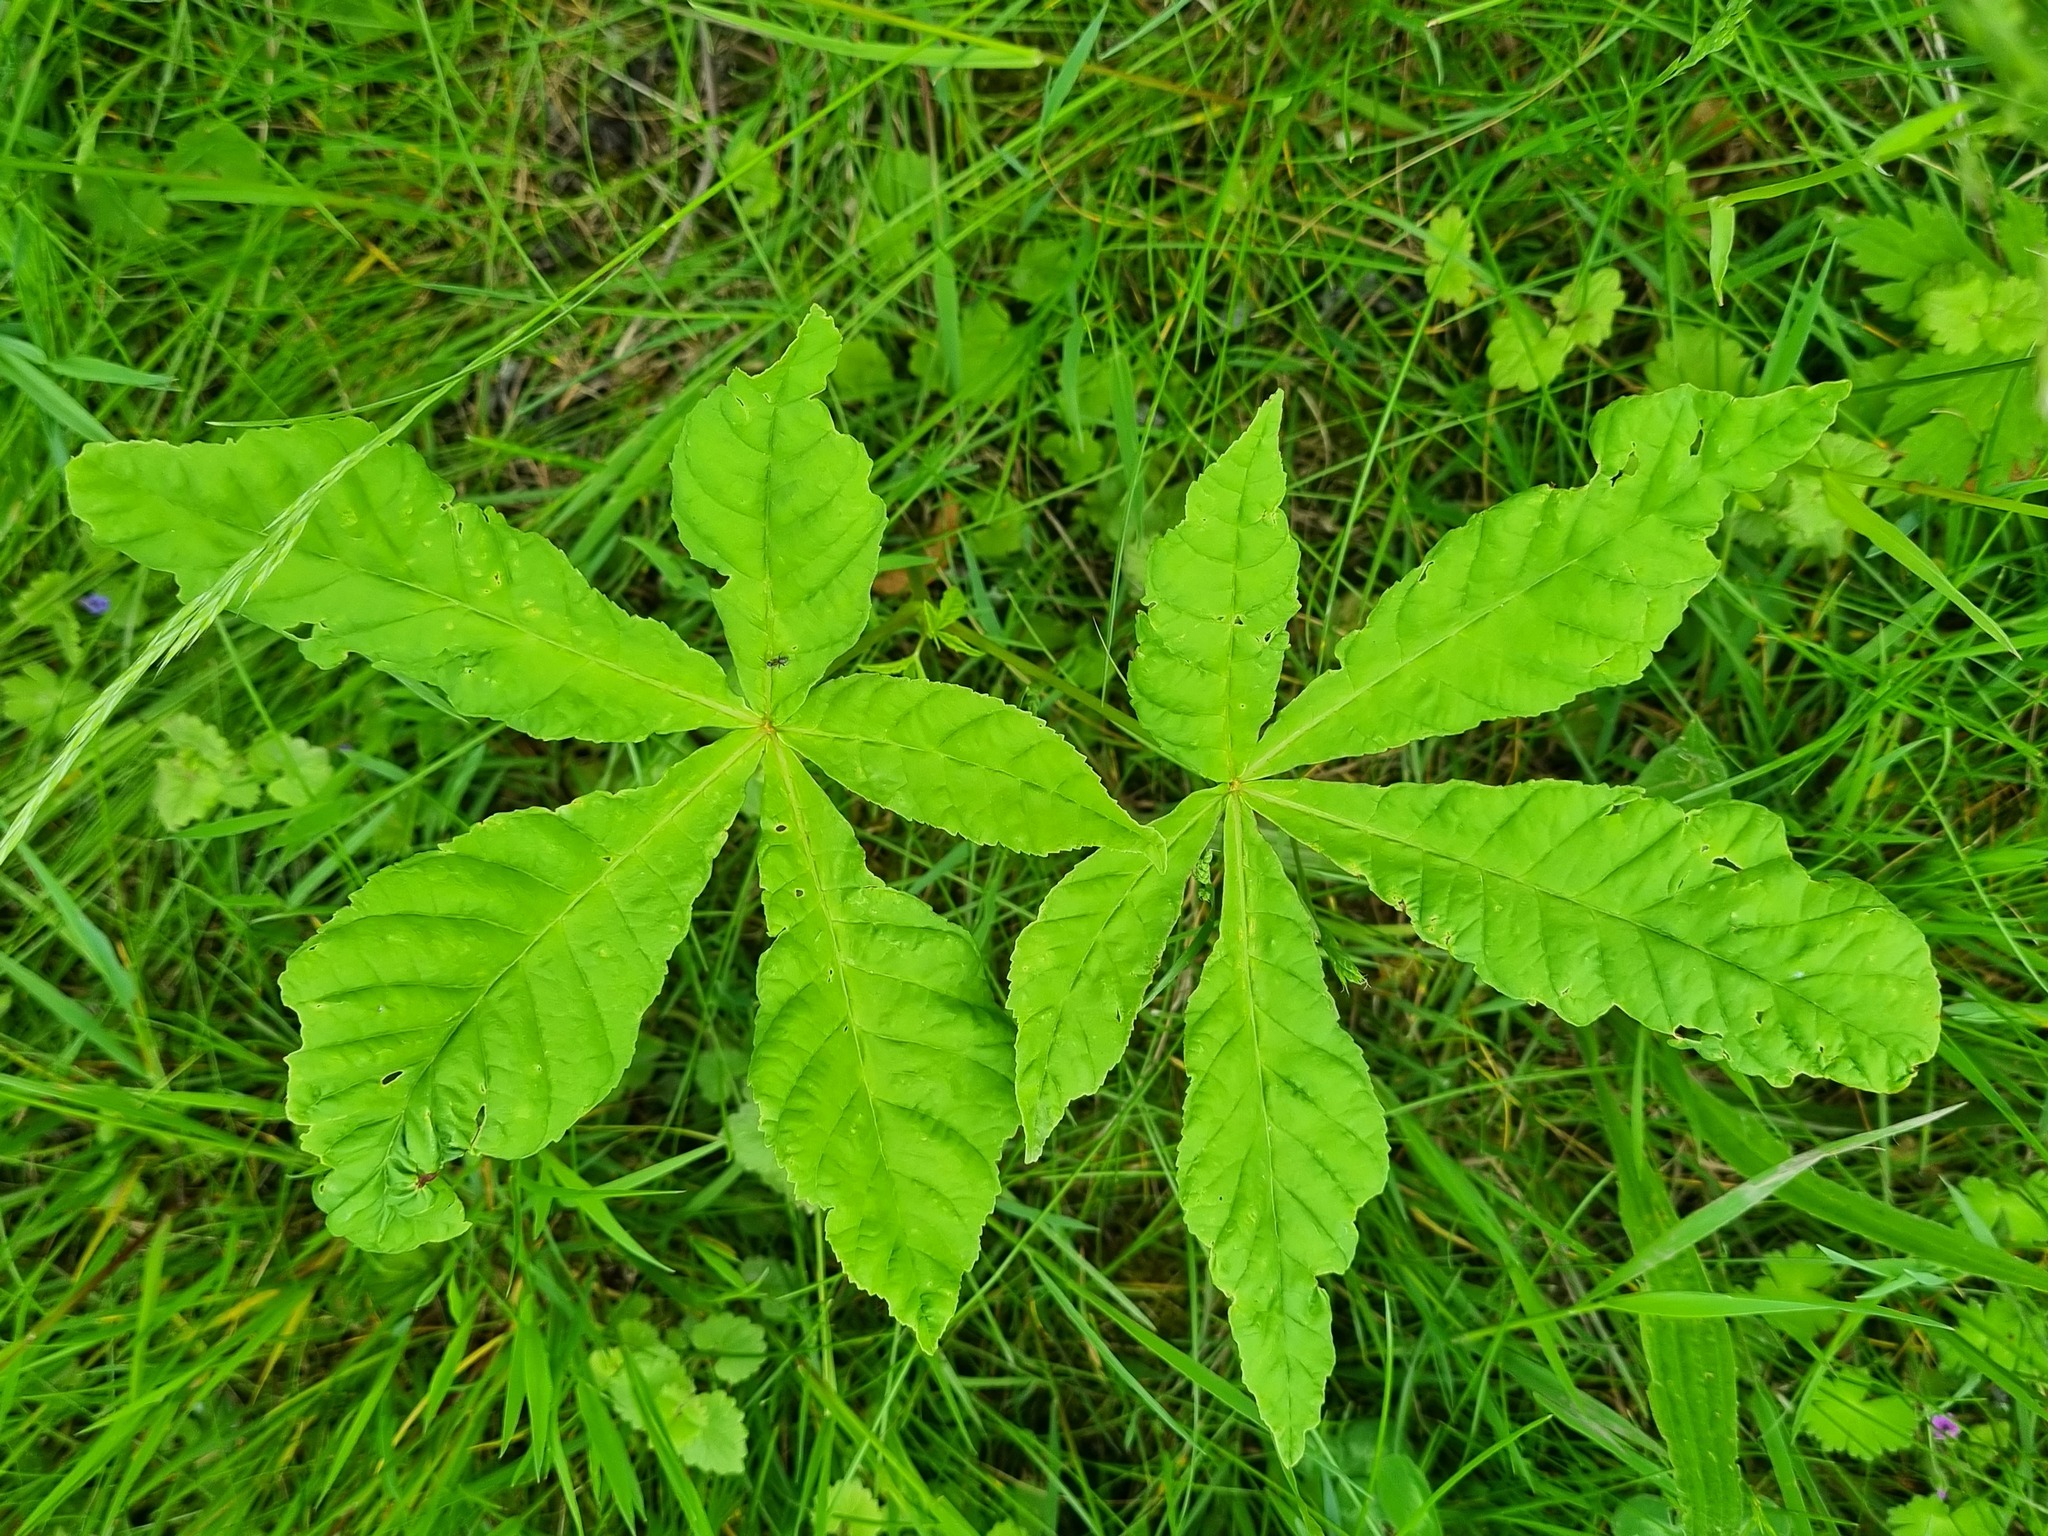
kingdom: Plantae
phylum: Tracheophyta
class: Magnoliopsida
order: Sapindales
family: Sapindaceae
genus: Aesculus
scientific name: Aesculus hippocastanum
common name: Horse-chestnut
